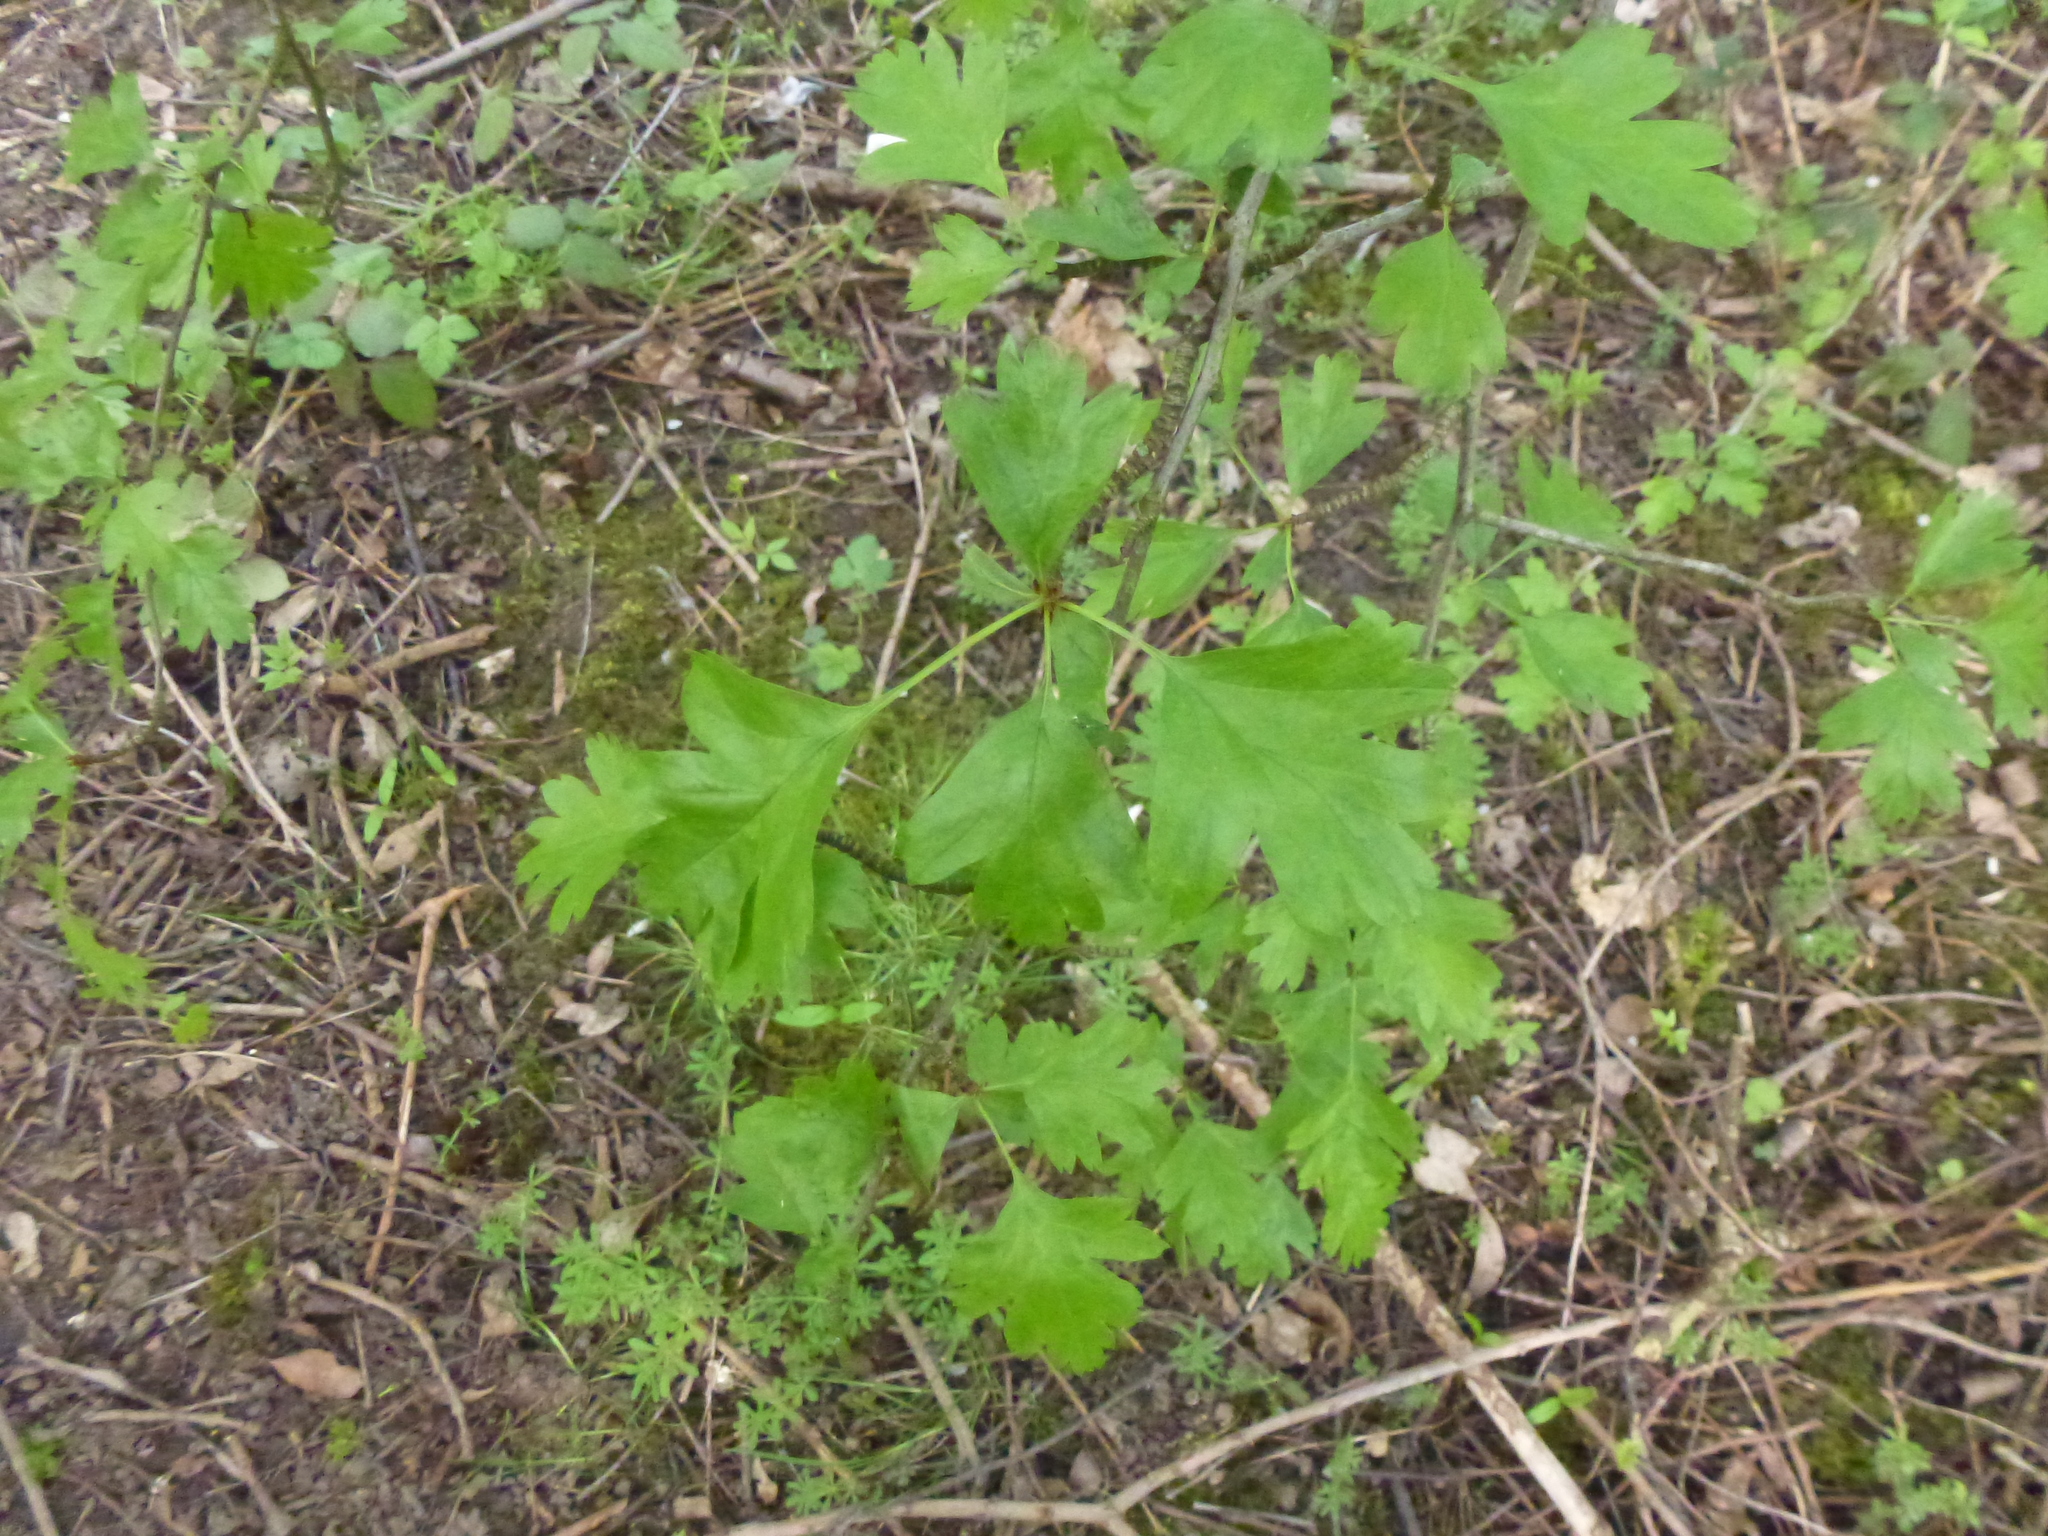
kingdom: Plantae
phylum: Tracheophyta
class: Magnoliopsida
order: Rosales
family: Rosaceae
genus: Crataegus
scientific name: Crataegus monogyna
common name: Hawthorn
